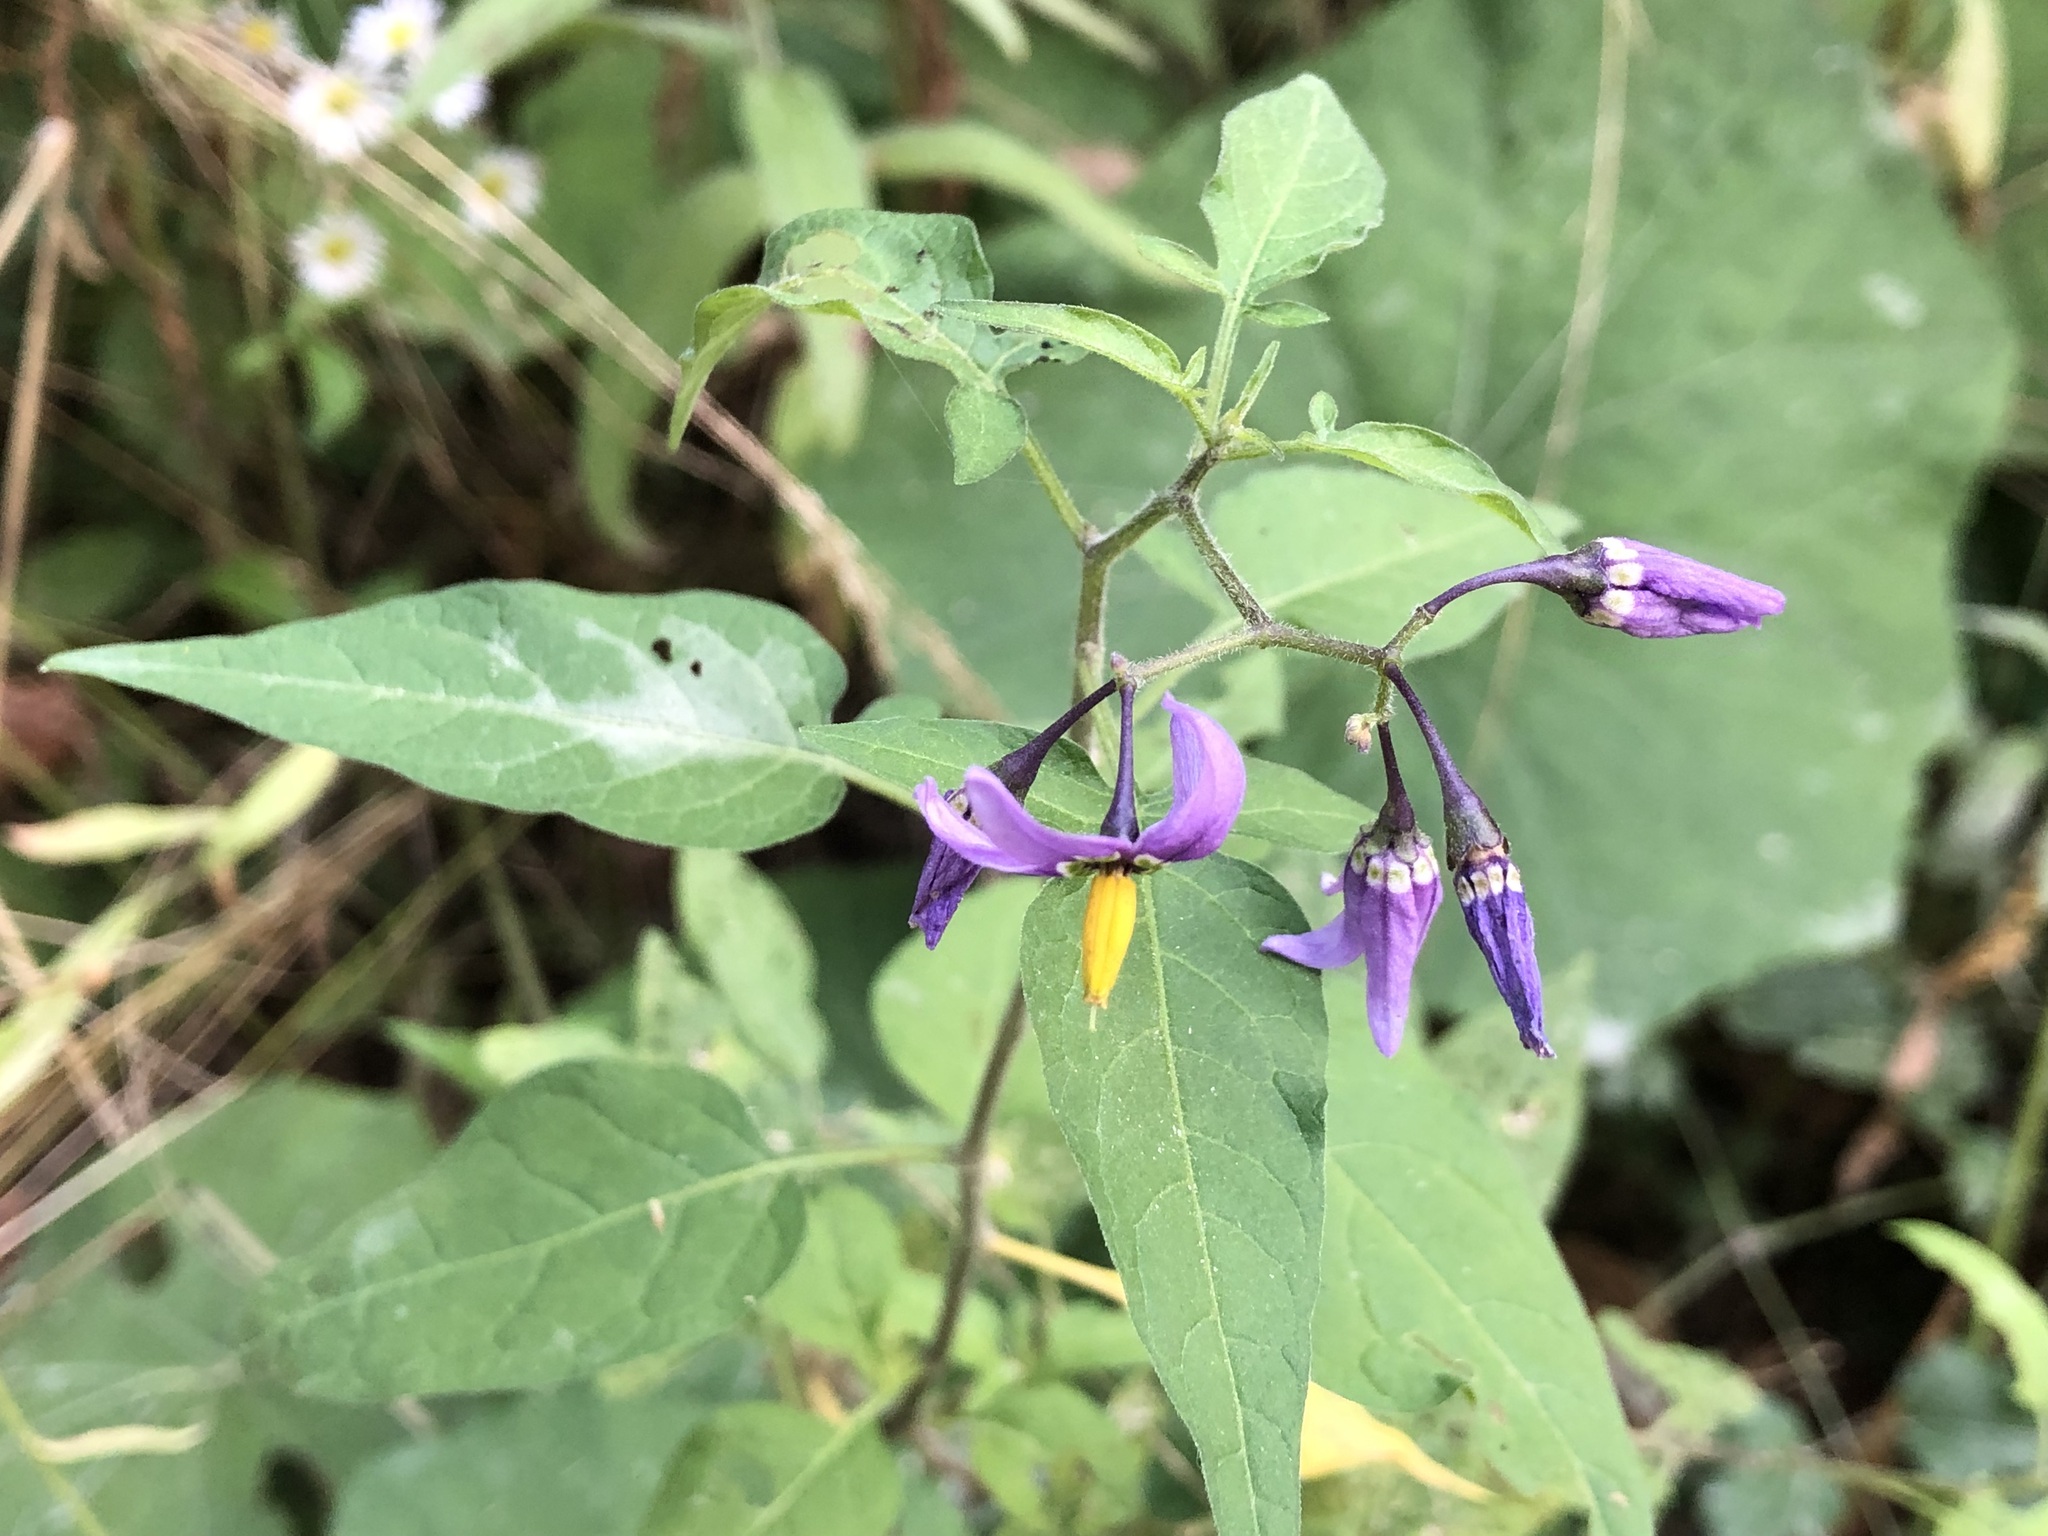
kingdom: Plantae
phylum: Tracheophyta
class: Magnoliopsida
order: Solanales
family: Solanaceae
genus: Solanum
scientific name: Solanum dulcamara
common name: Climbing nightshade
